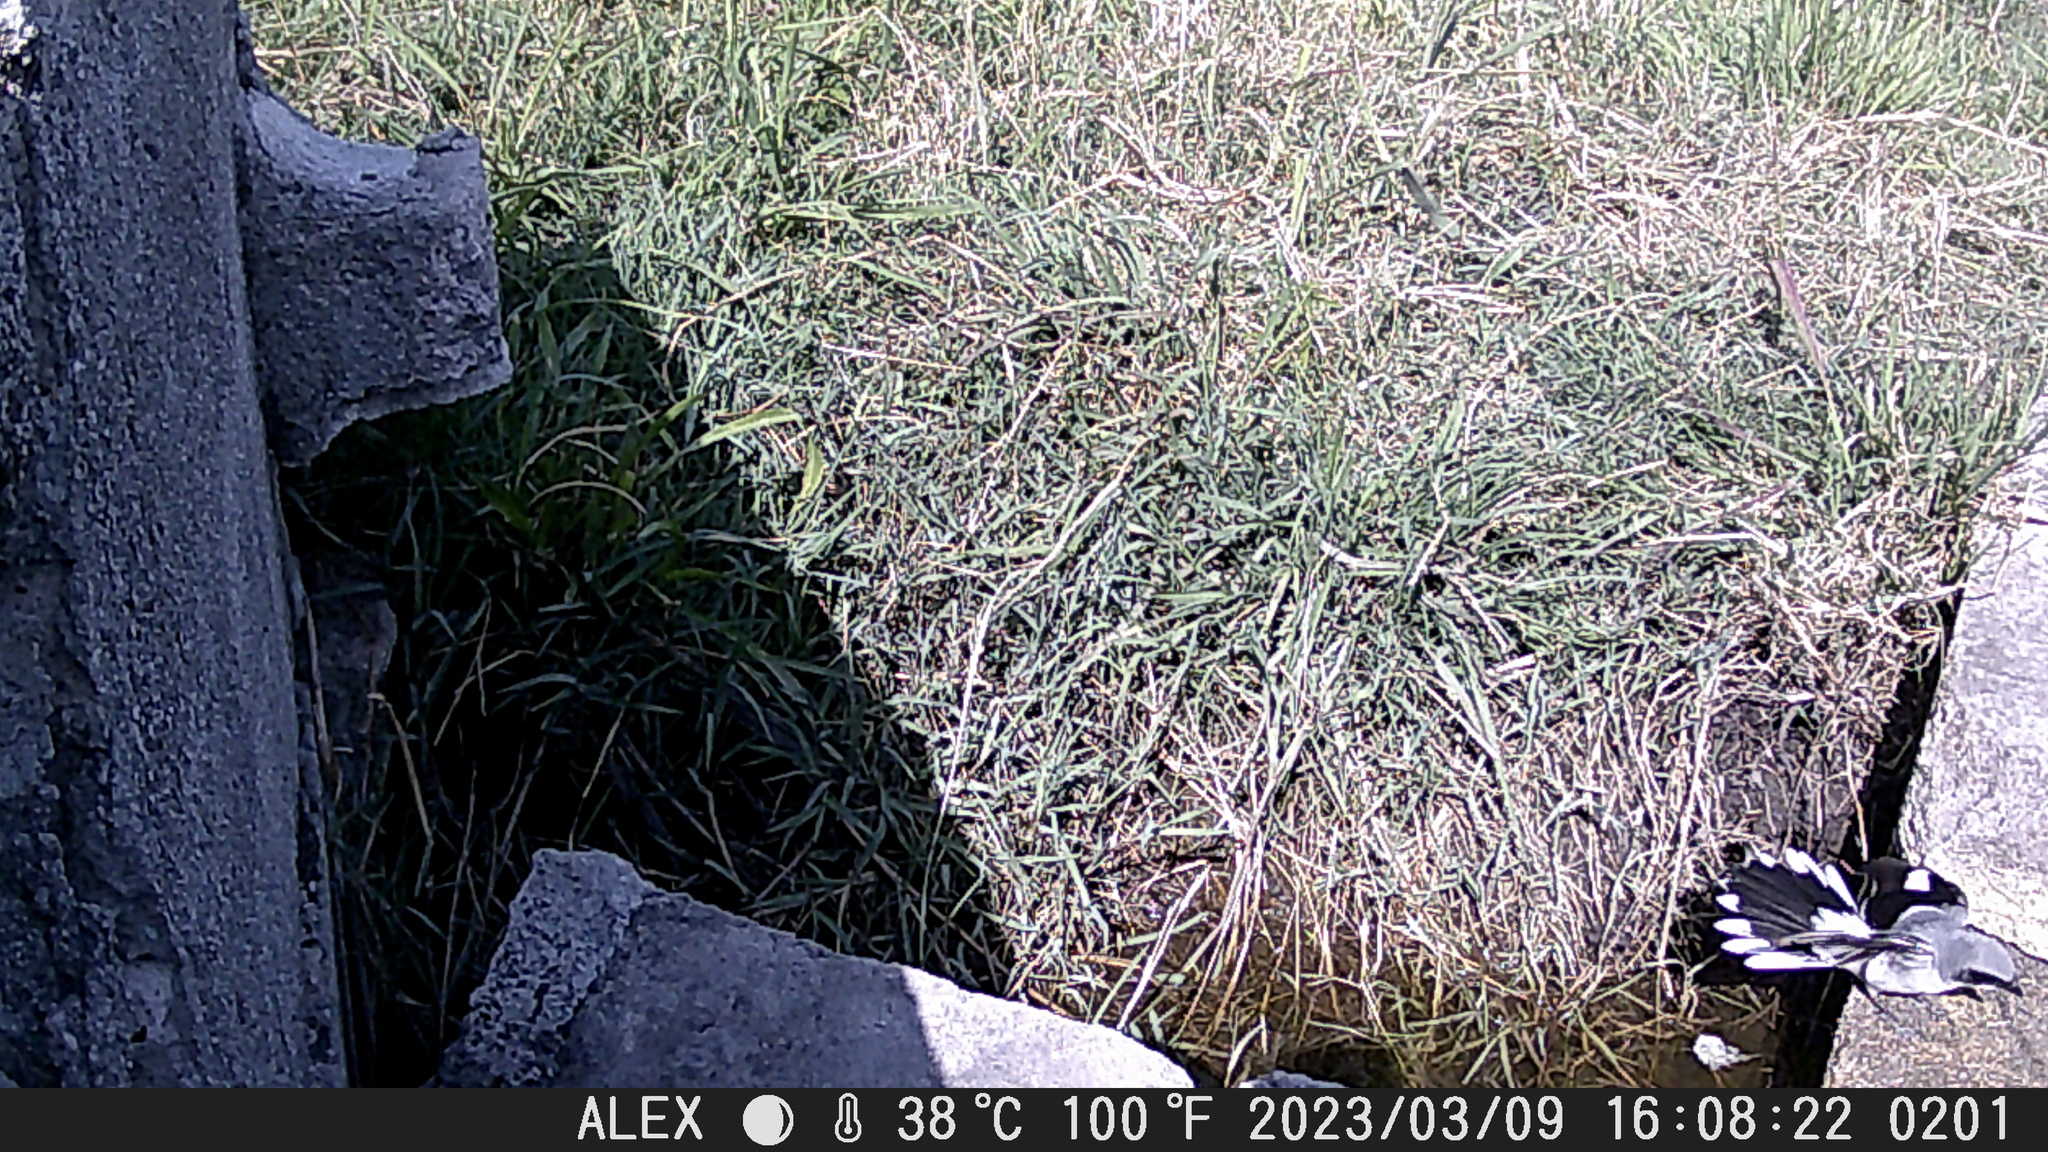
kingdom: Animalia
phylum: Chordata
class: Aves
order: Passeriformes
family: Laniidae
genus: Lanius
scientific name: Lanius ludovicianus
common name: Loggerhead shrike
